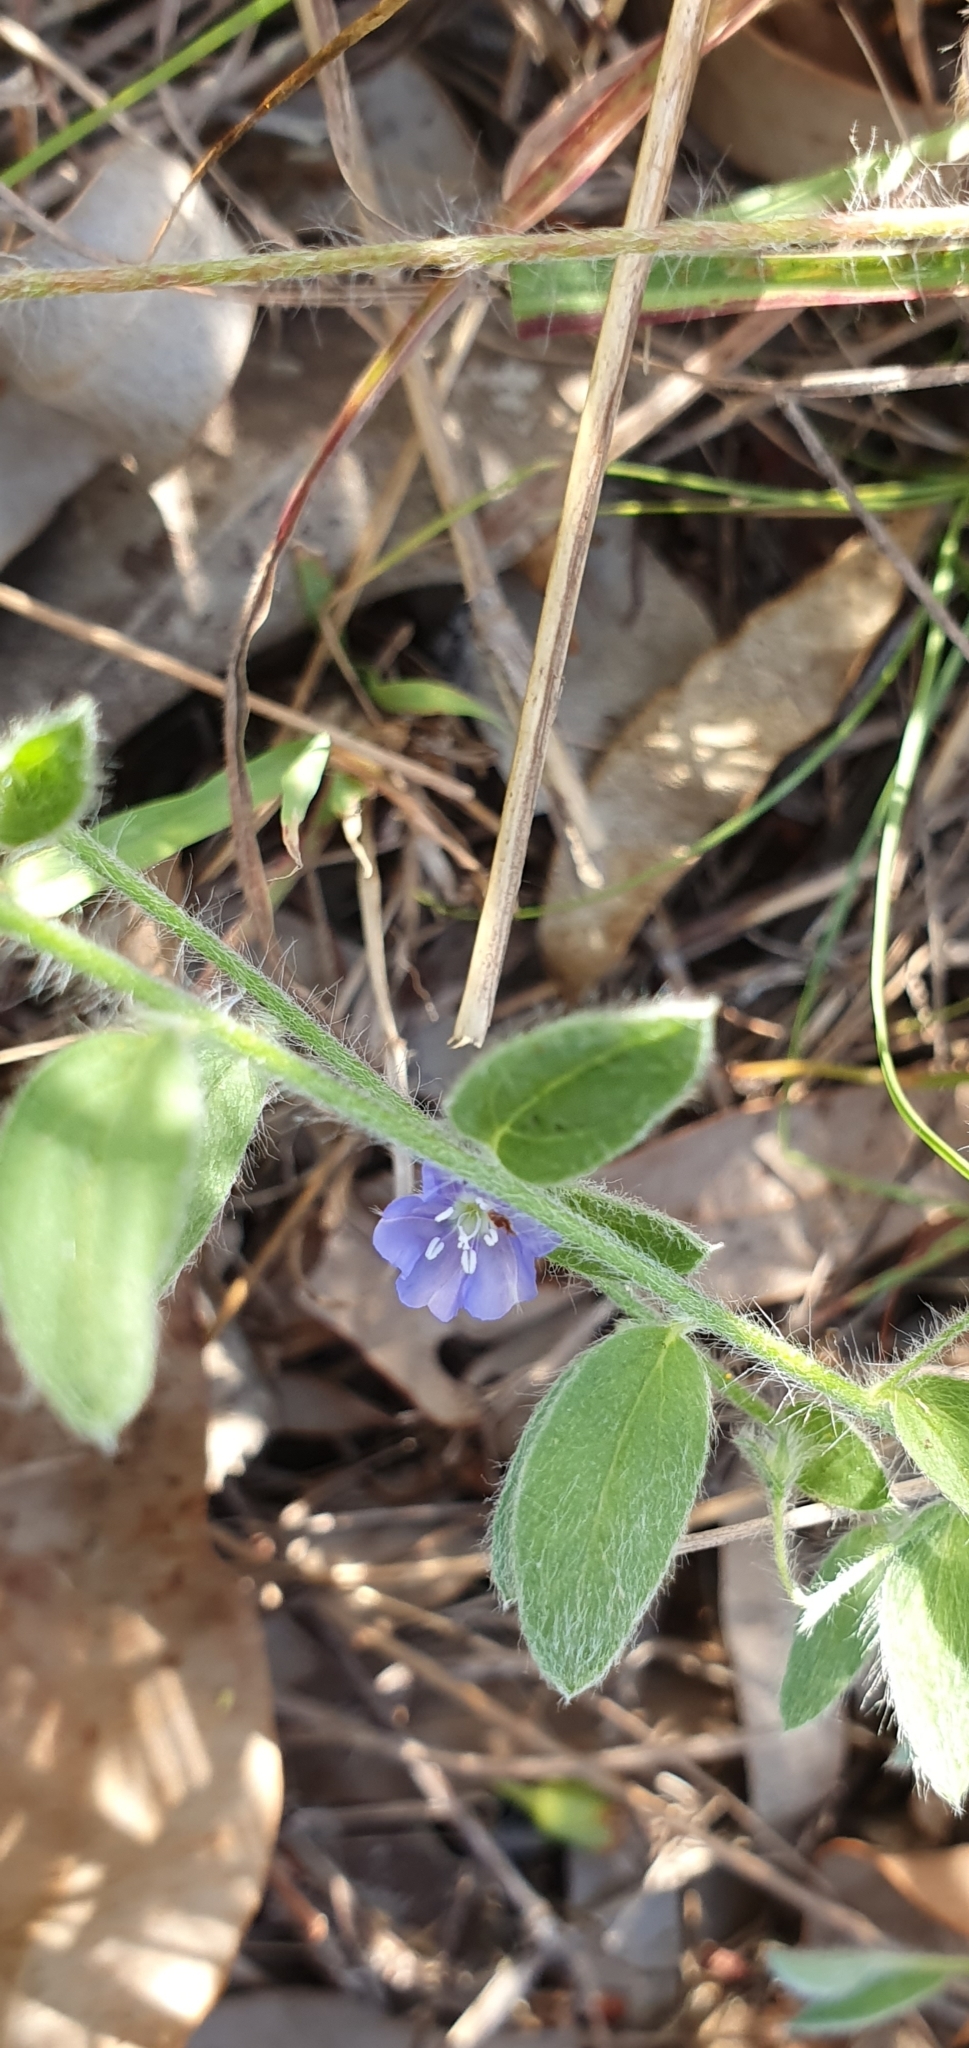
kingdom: Plantae
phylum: Tracheophyta
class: Magnoliopsida
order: Solanales
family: Convolvulaceae
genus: Evolvulus
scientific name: Evolvulus alsinoides
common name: Slender dwarf morning-glory
